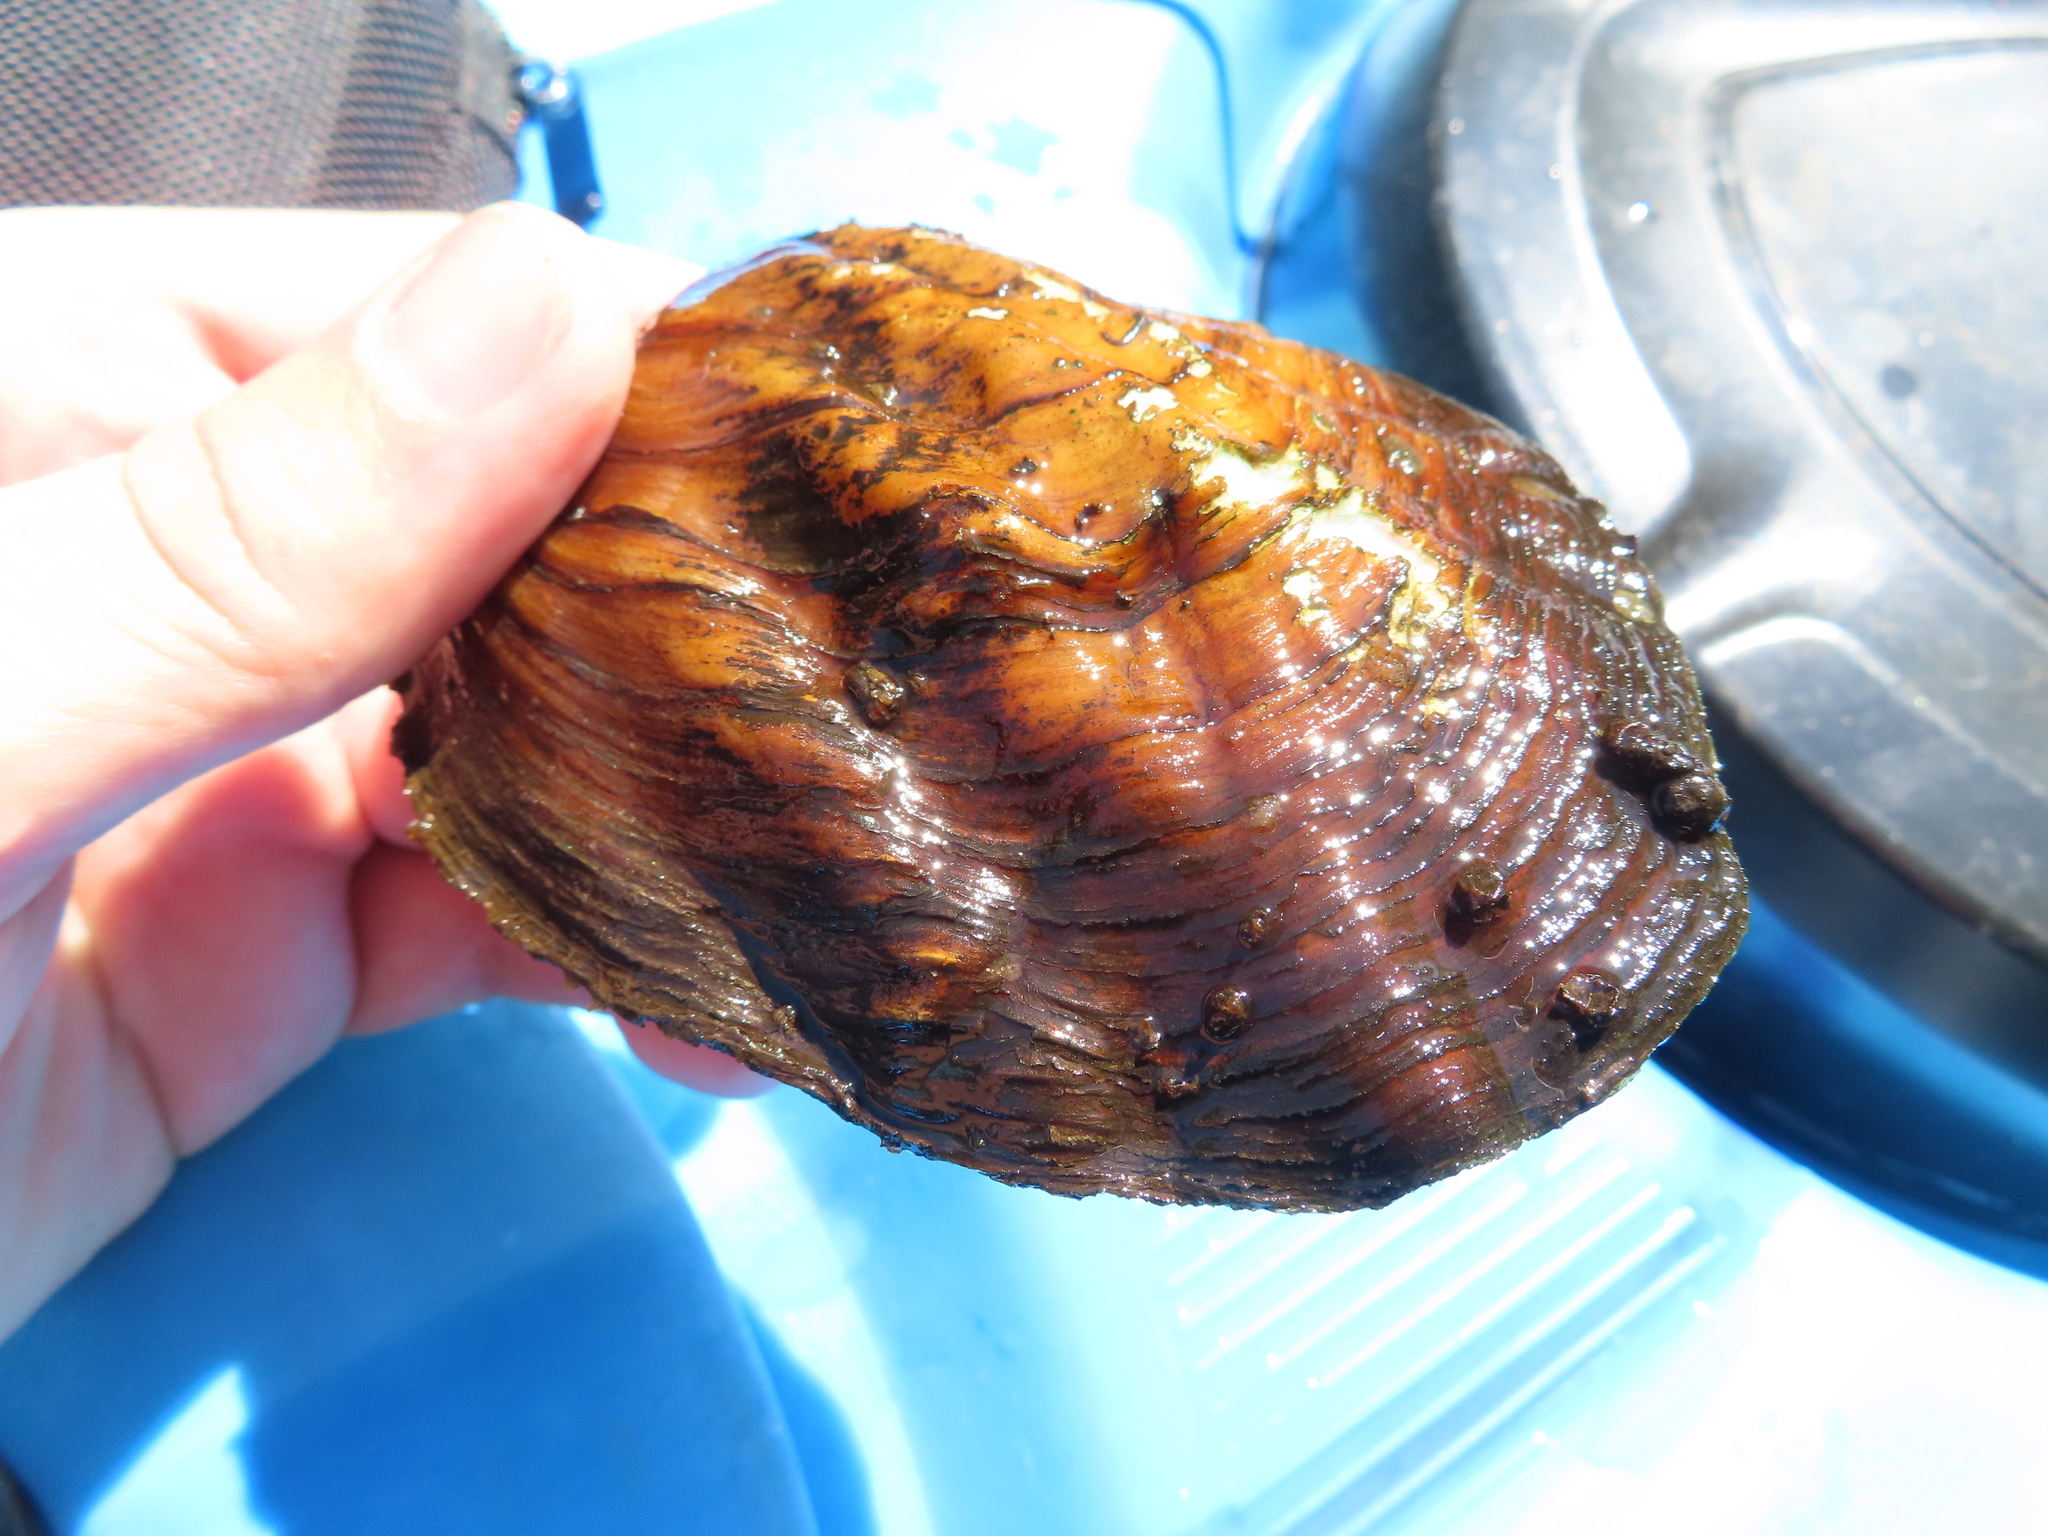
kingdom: Animalia
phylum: Mollusca
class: Bivalvia
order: Unionida
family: Unionidae
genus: Amblema
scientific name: Amblema plicata
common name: Threeridge
